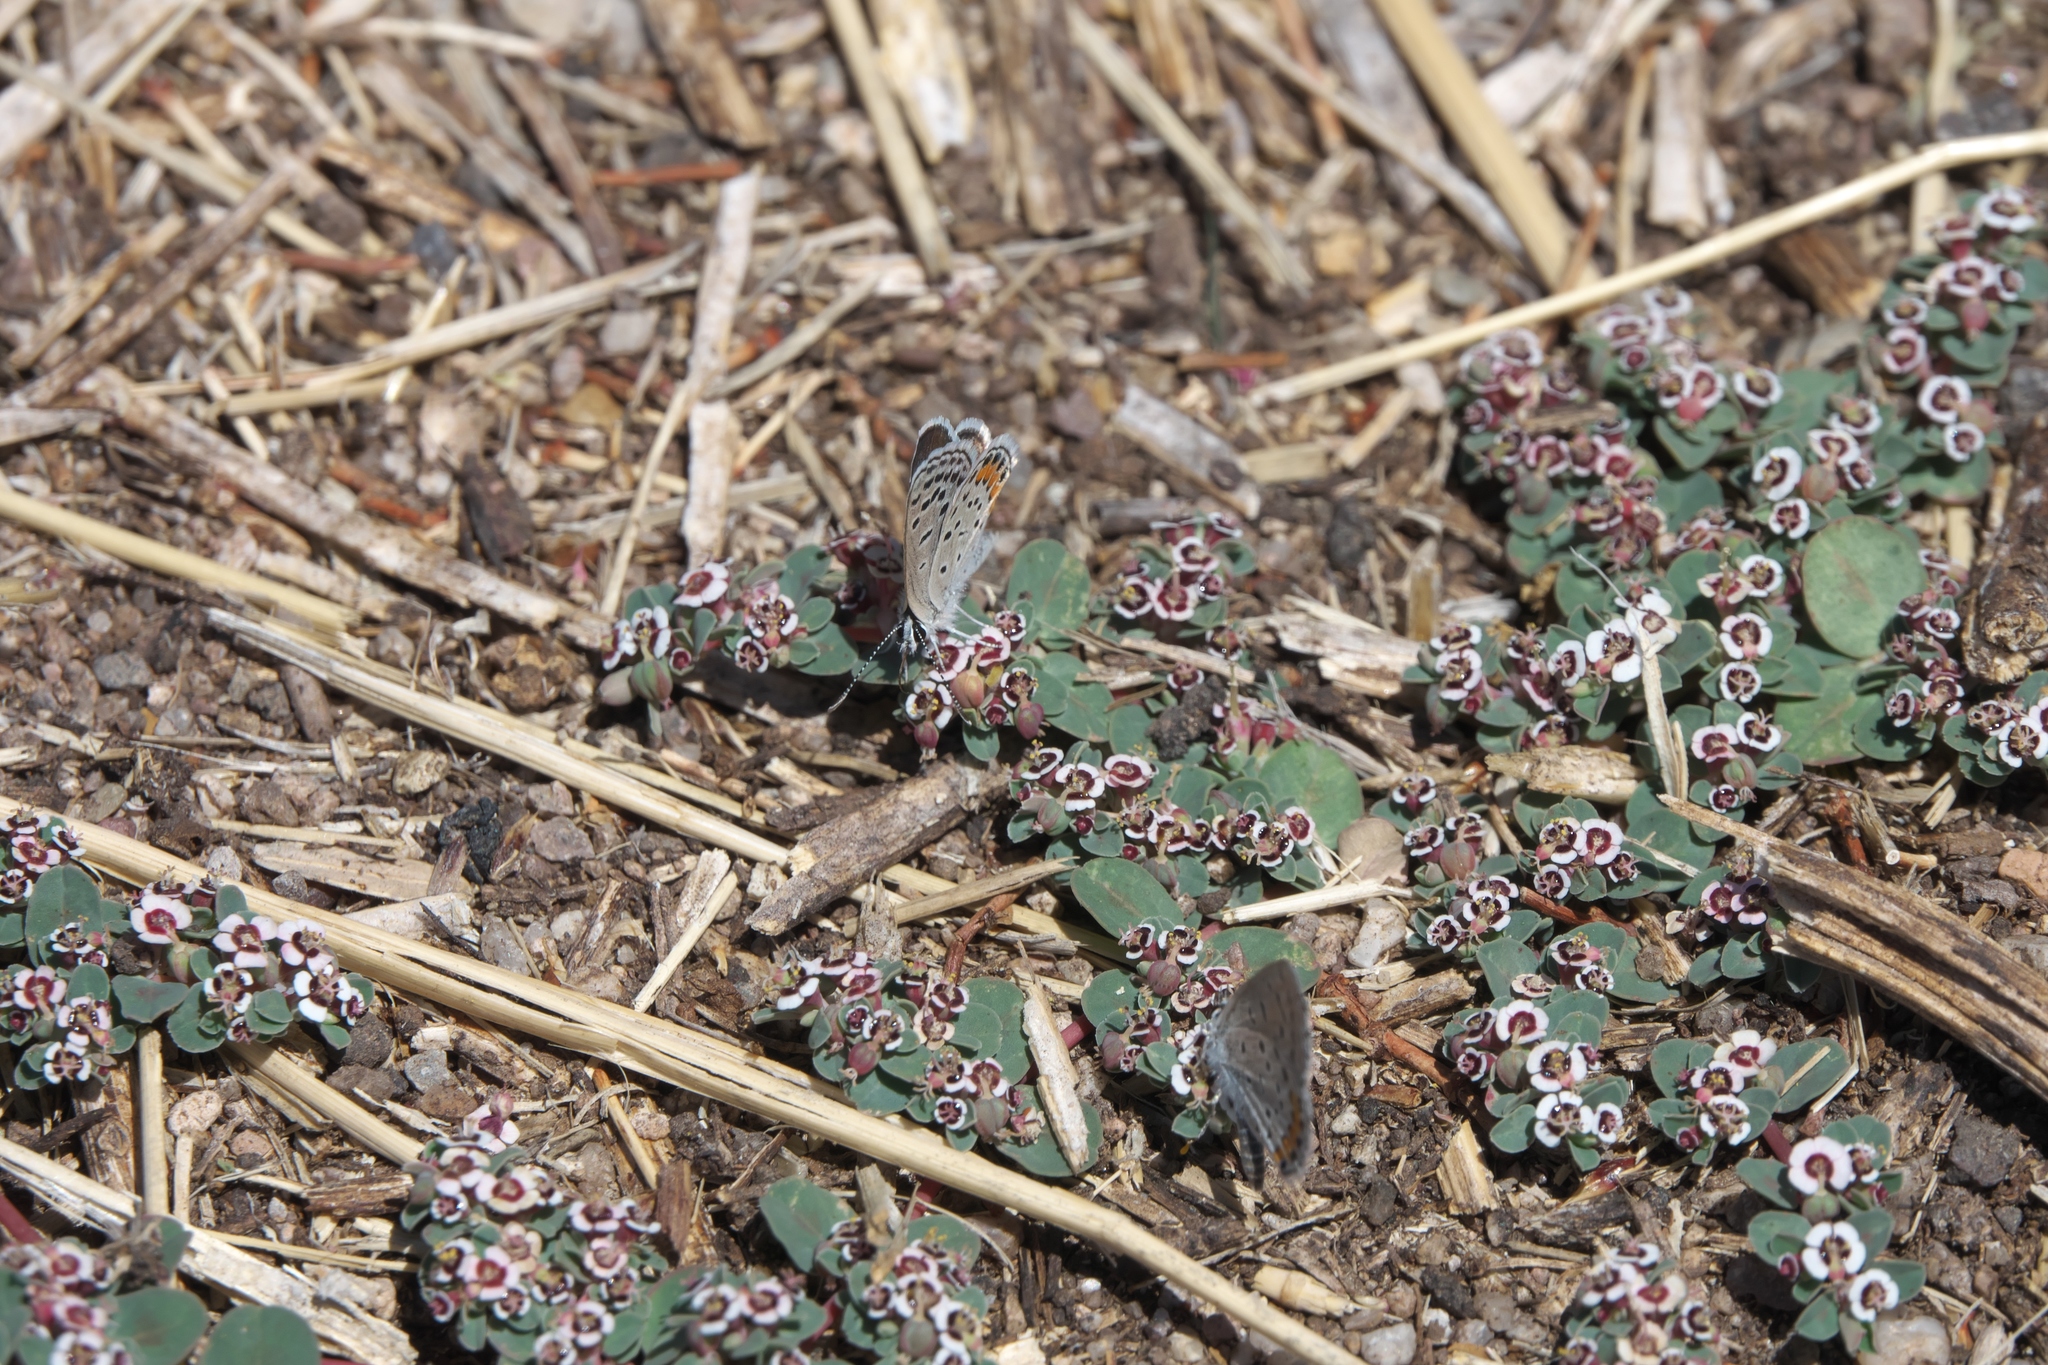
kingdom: Plantae
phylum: Tracheophyta
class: Magnoliopsida
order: Malpighiales
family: Euphorbiaceae
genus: Euphorbia
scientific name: Euphorbia albomarginata
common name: Whitemargin sandmat
